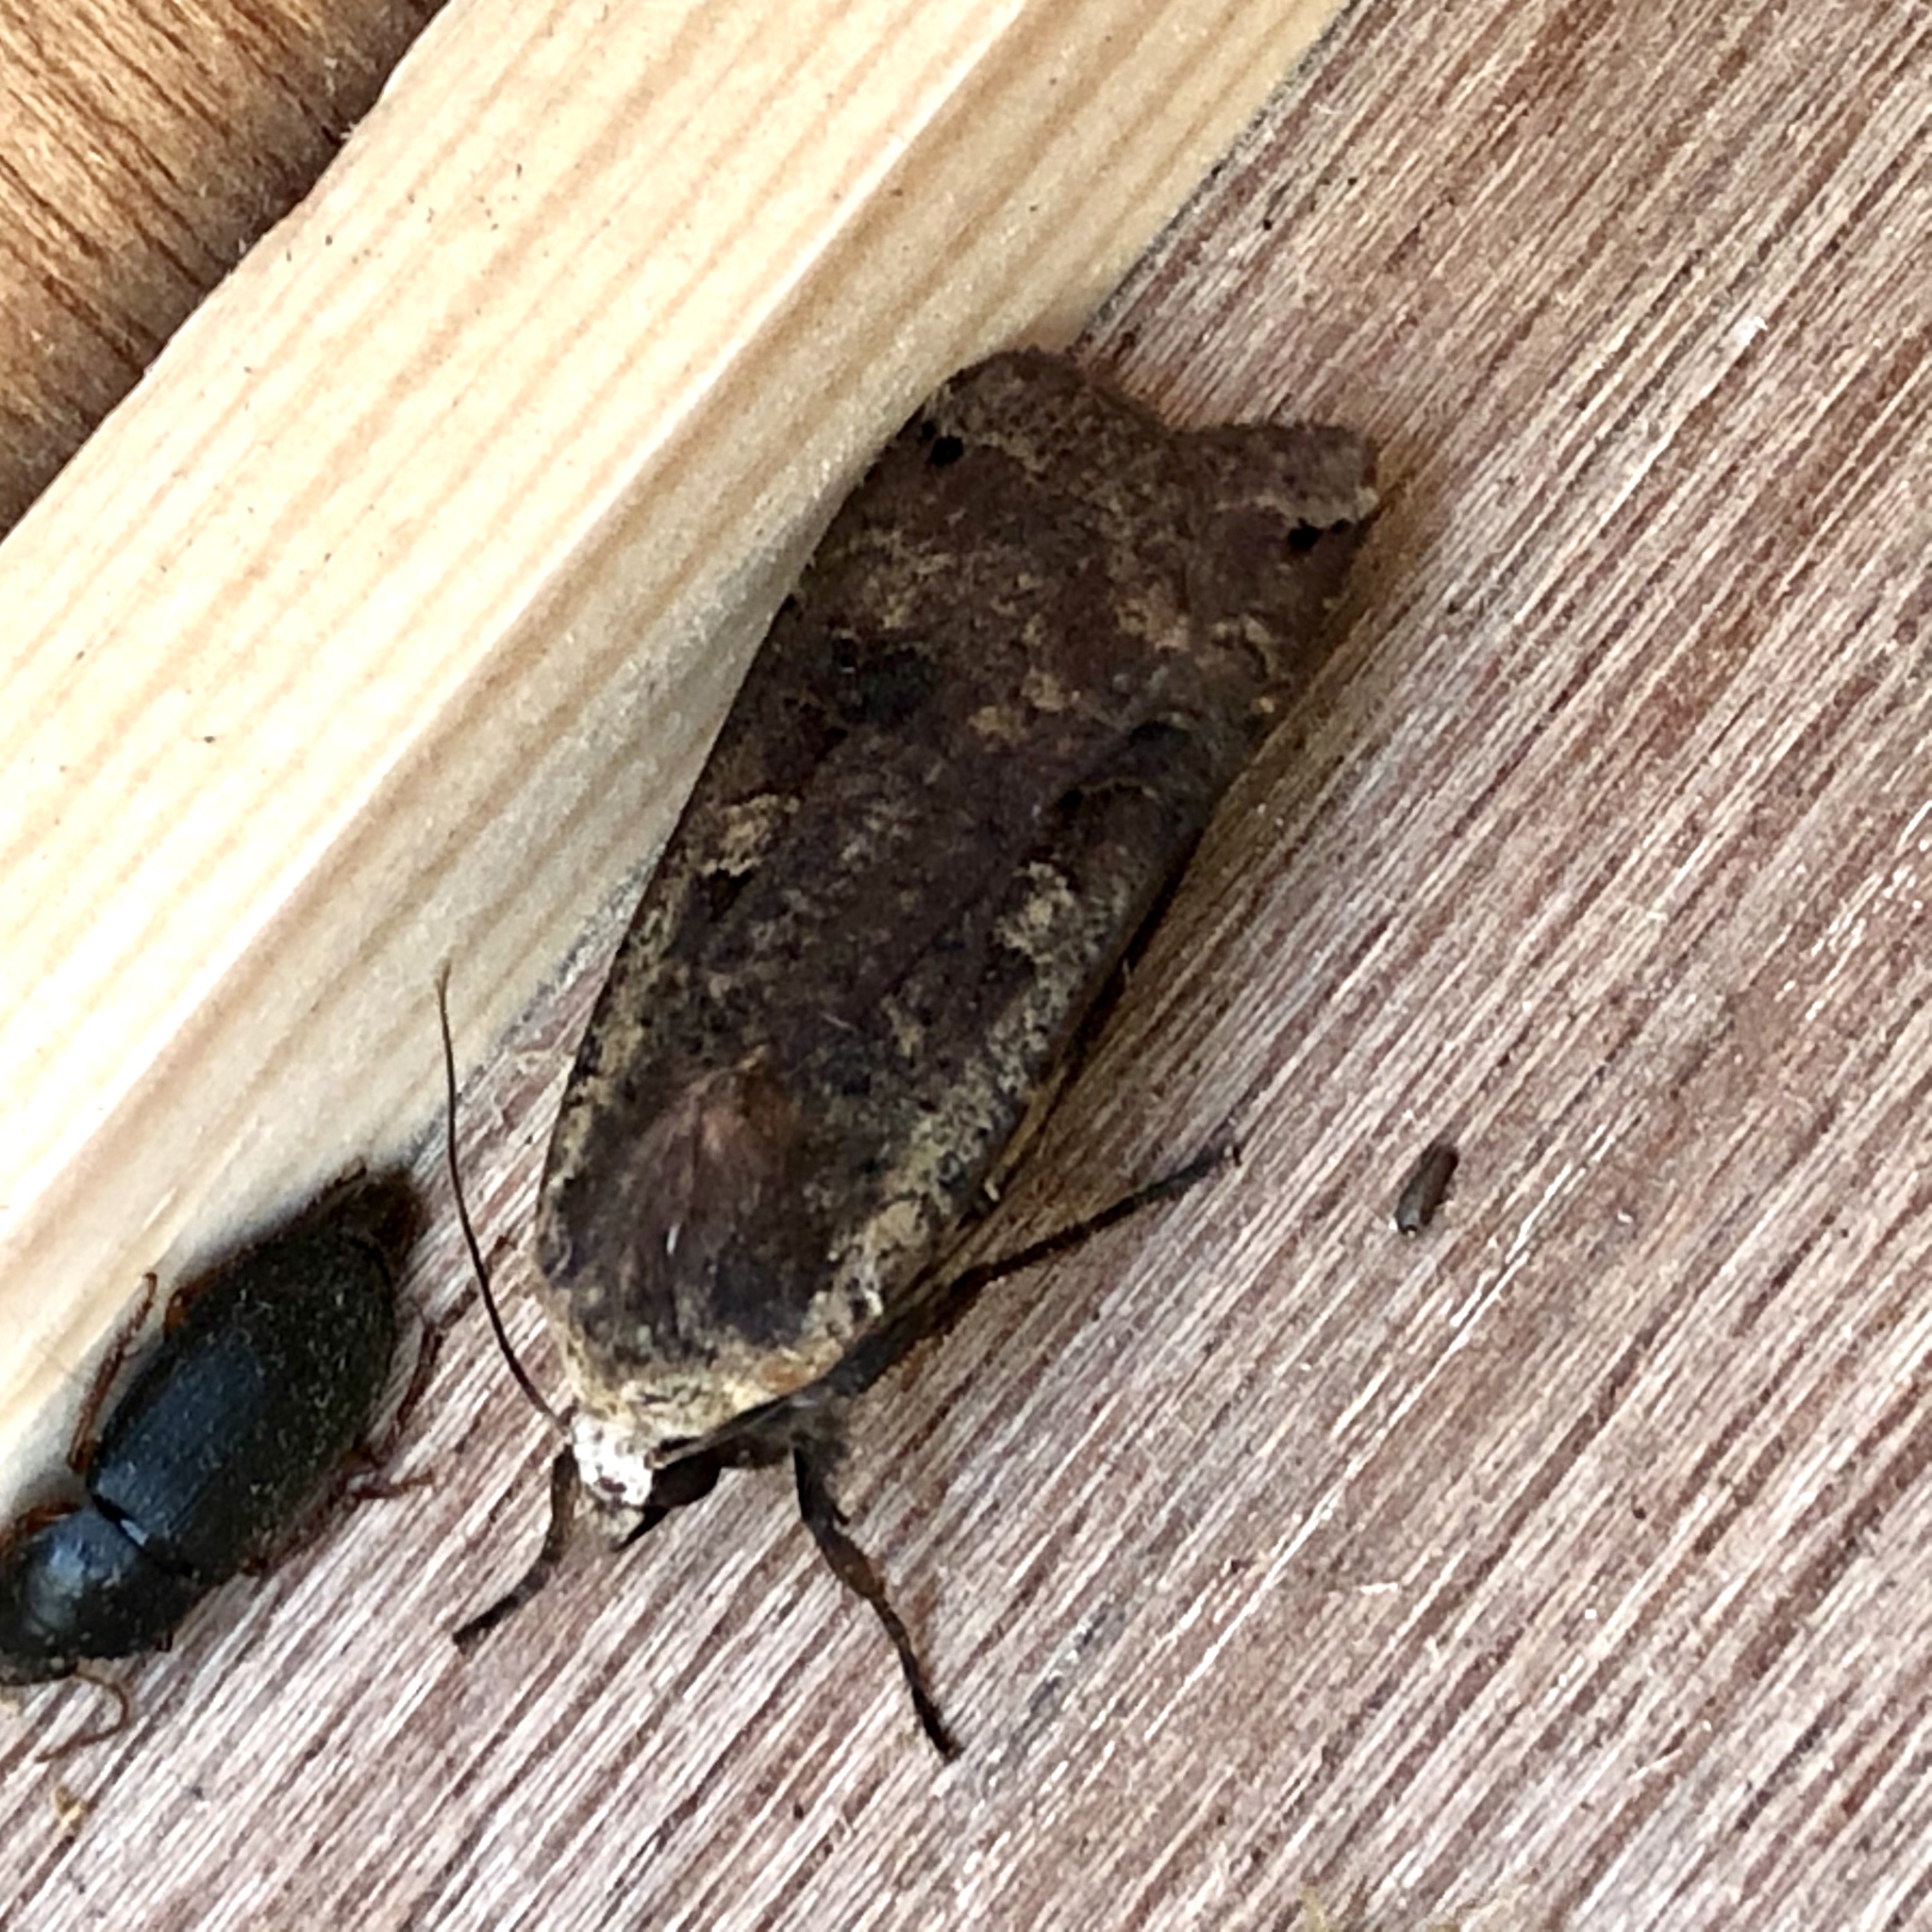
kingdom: Animalia
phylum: Arthropoda
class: Insecta
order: Lepidoptera
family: Noctuidae
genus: Noctua
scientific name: Noctua pronuba
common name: Large yellow underwing
